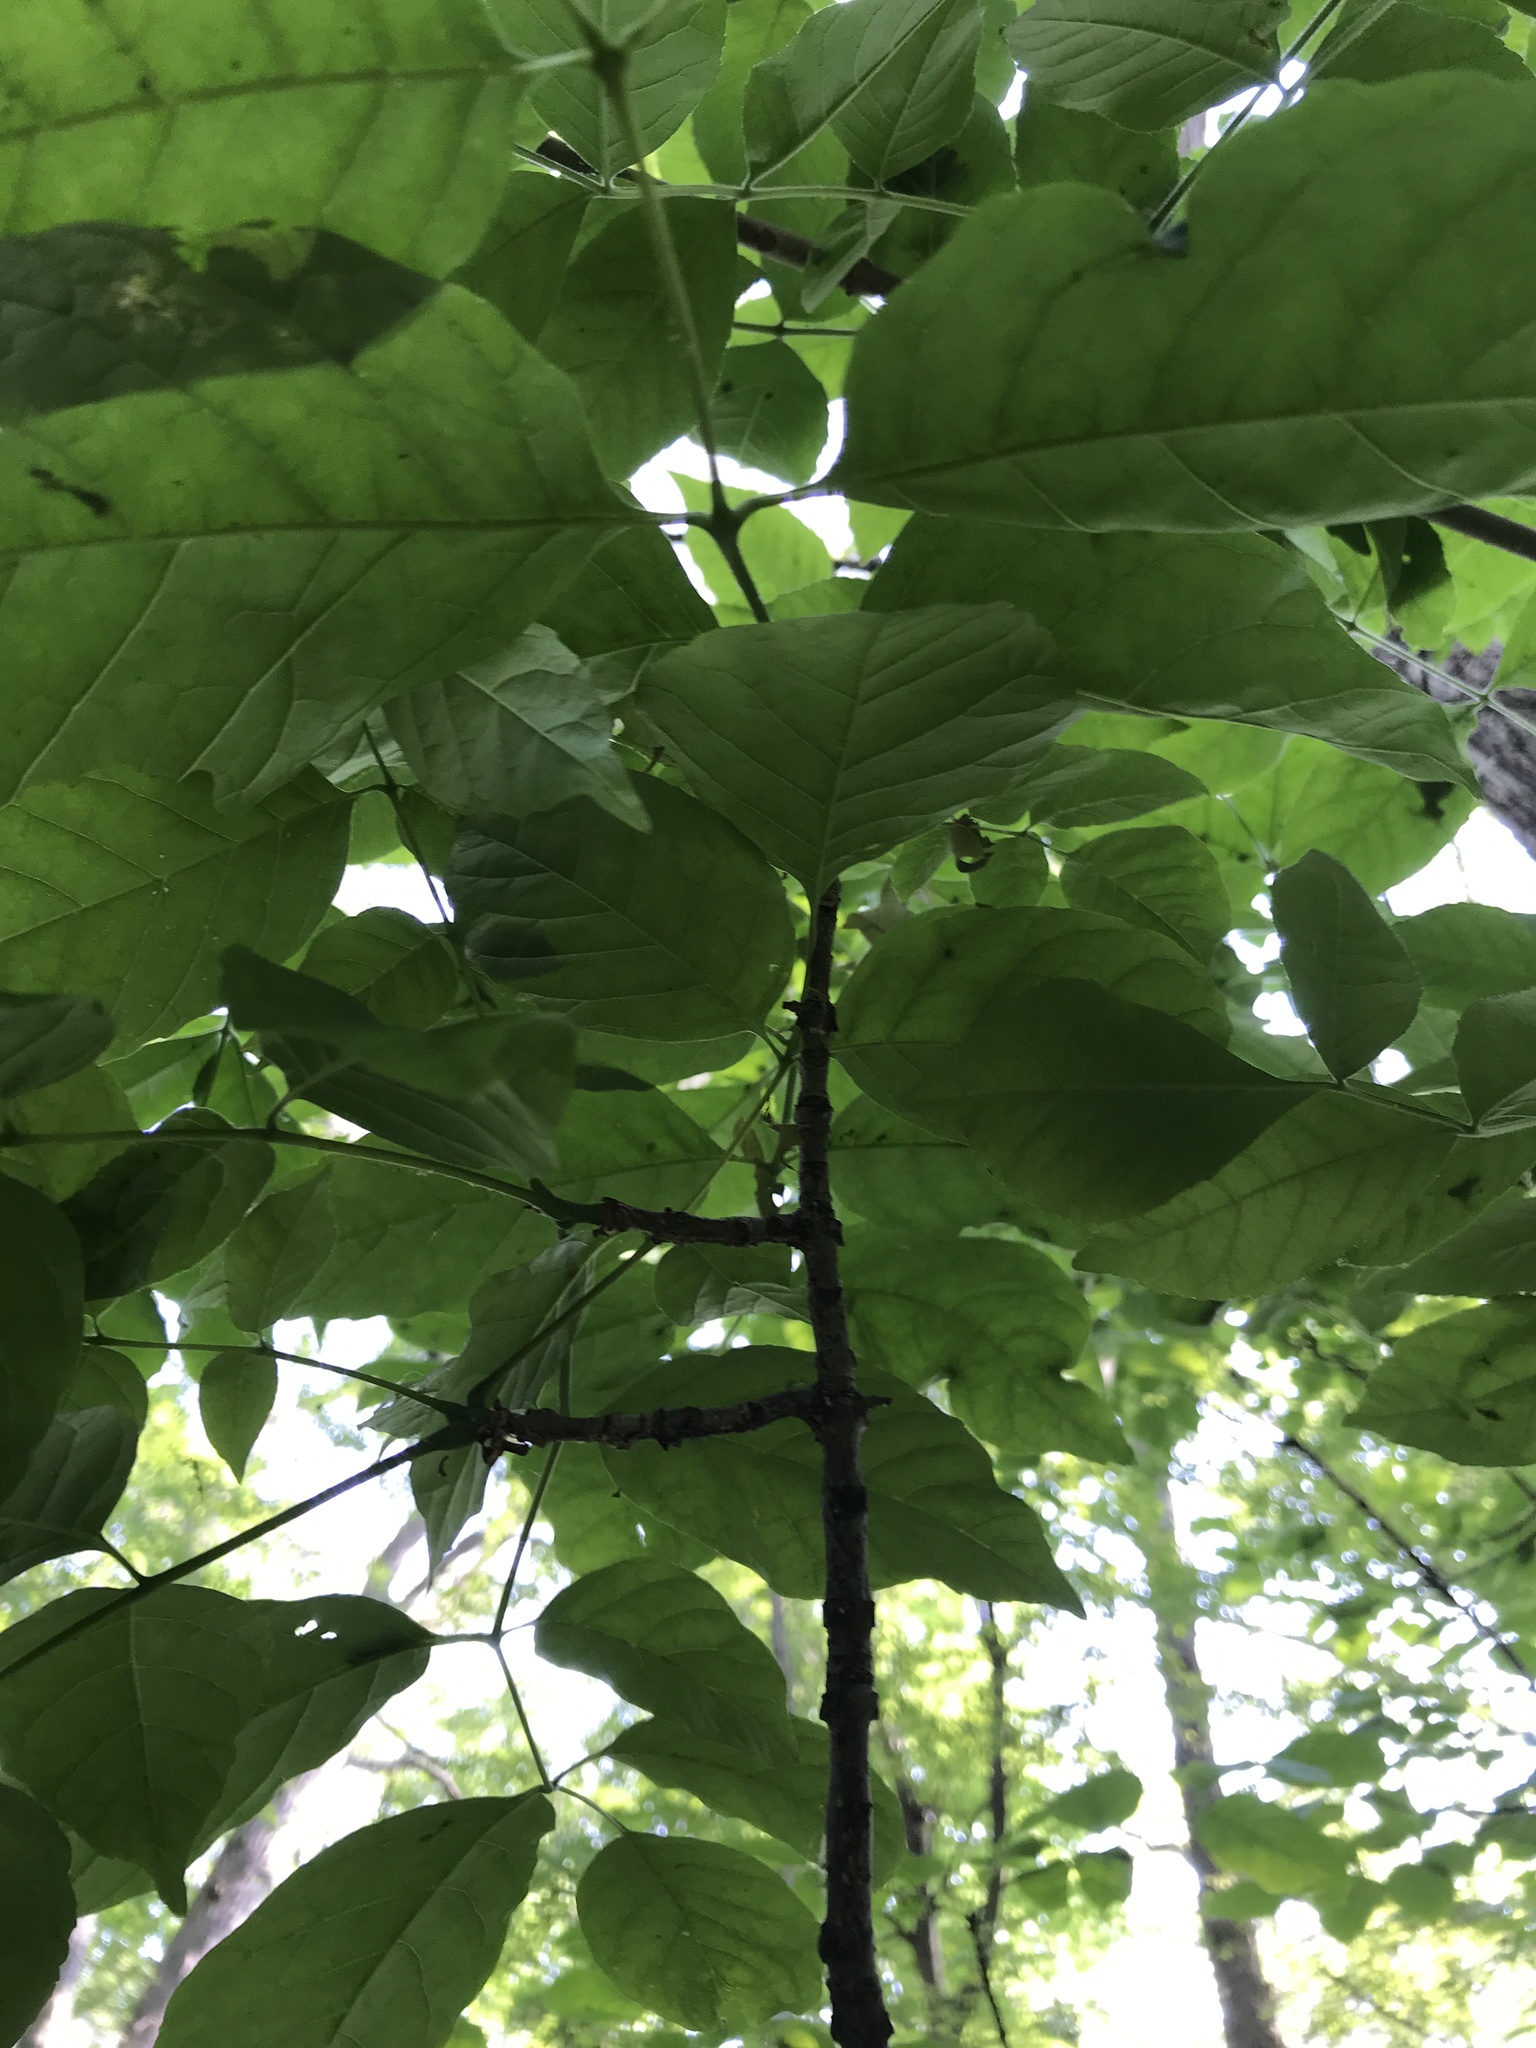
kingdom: Plantae
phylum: Tracheophyta
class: Magnoliopsida
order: Lamiales
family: Oleaceae
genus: Fraxinus
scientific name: Fraxinus americana
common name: White ash
